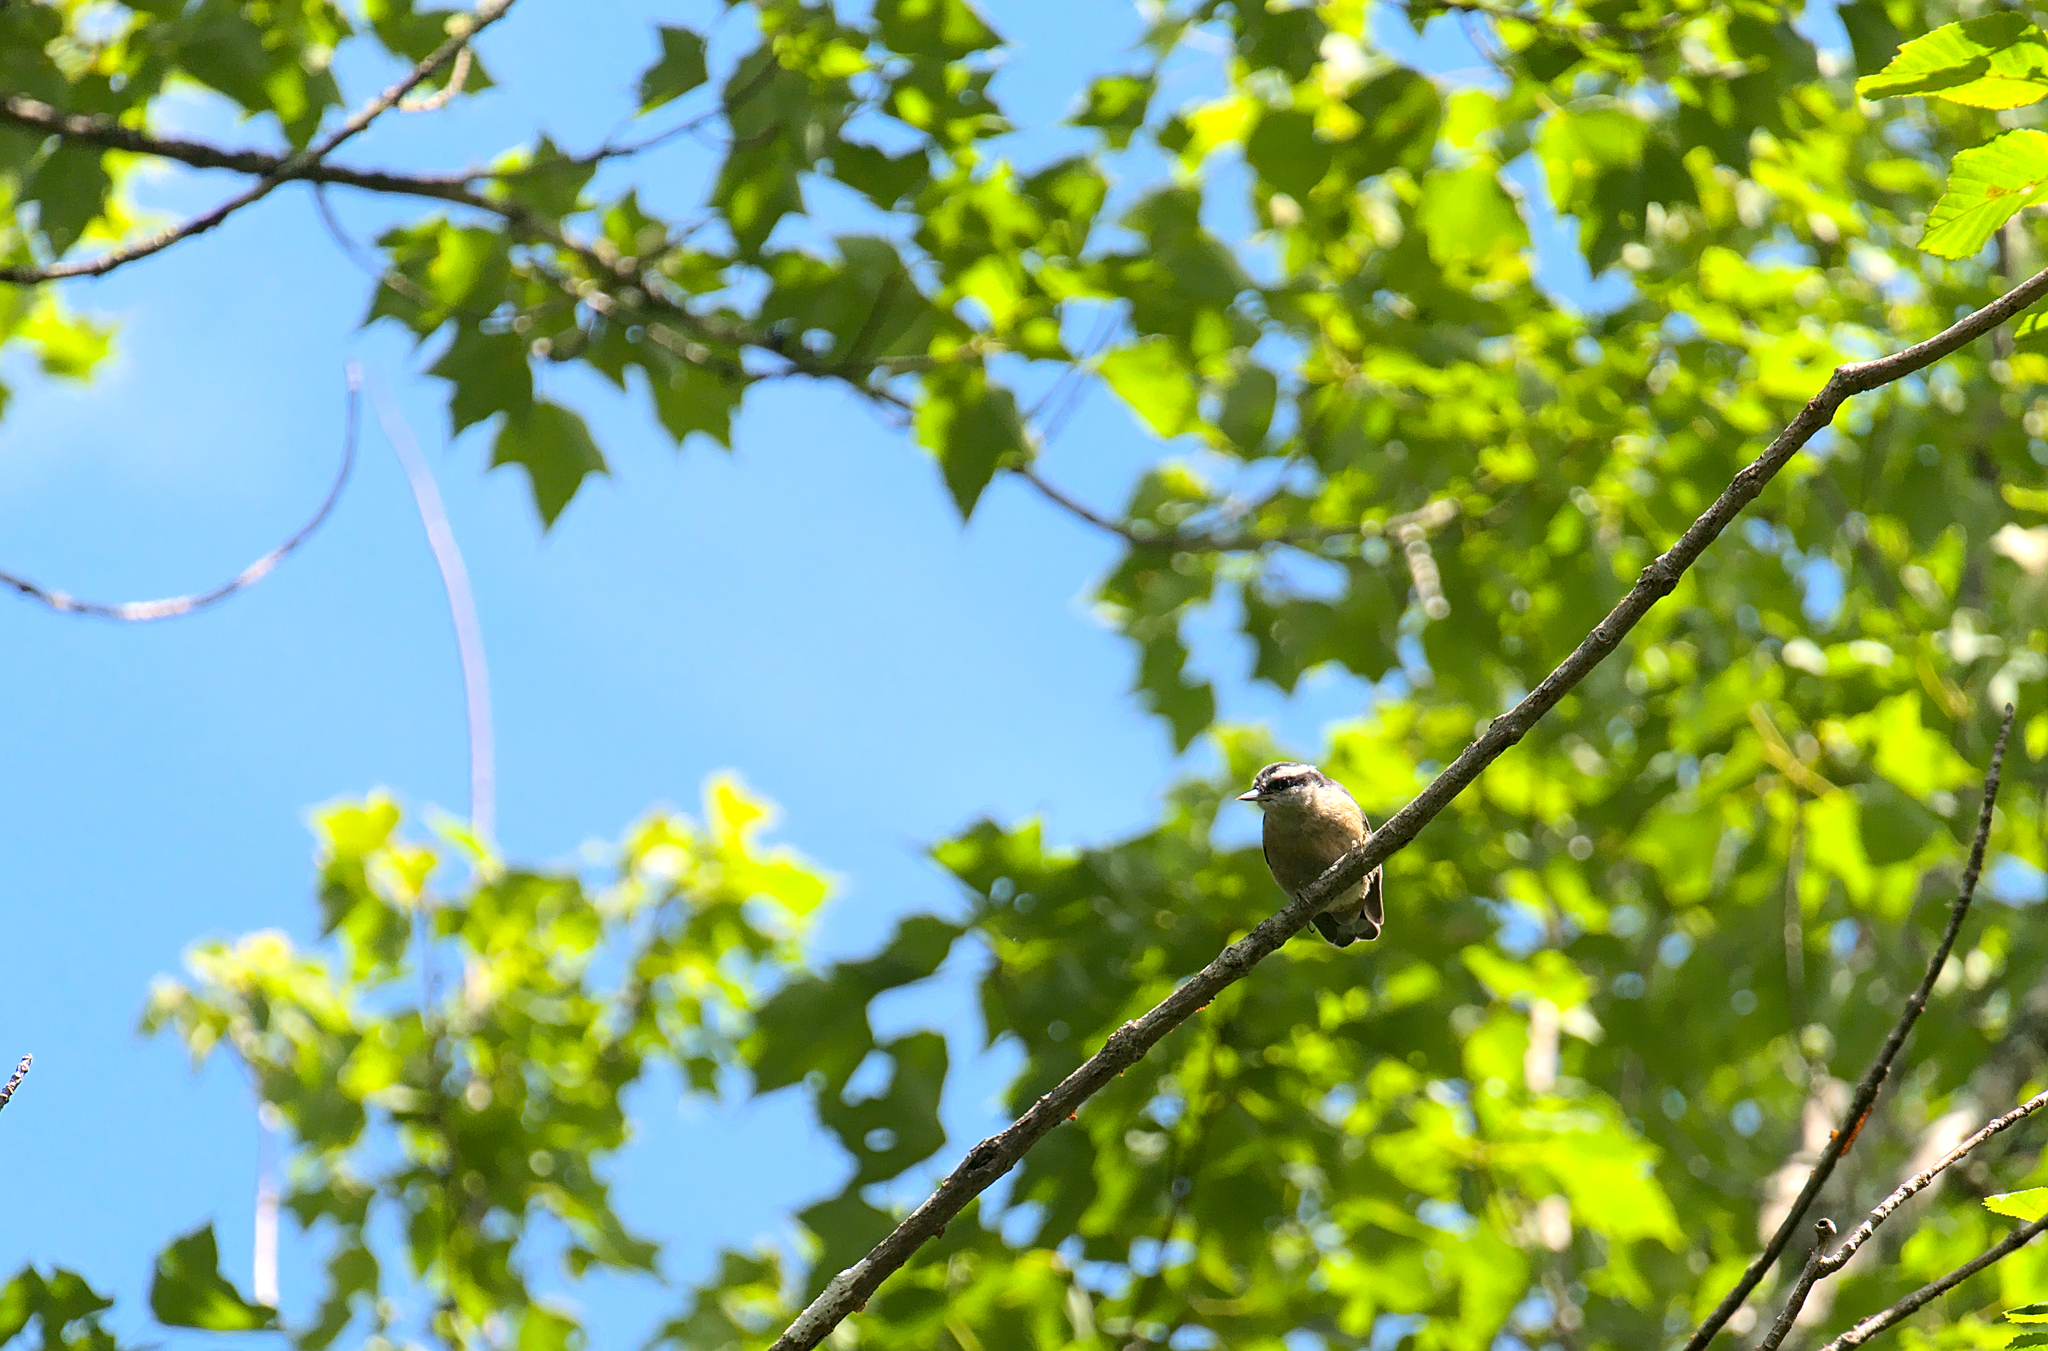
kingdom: Animalia
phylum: Chordata
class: Aves
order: Passeriformes
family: Sittidae
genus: Sitta
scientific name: Sitta canadensis
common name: Red-breasted nuthatch
